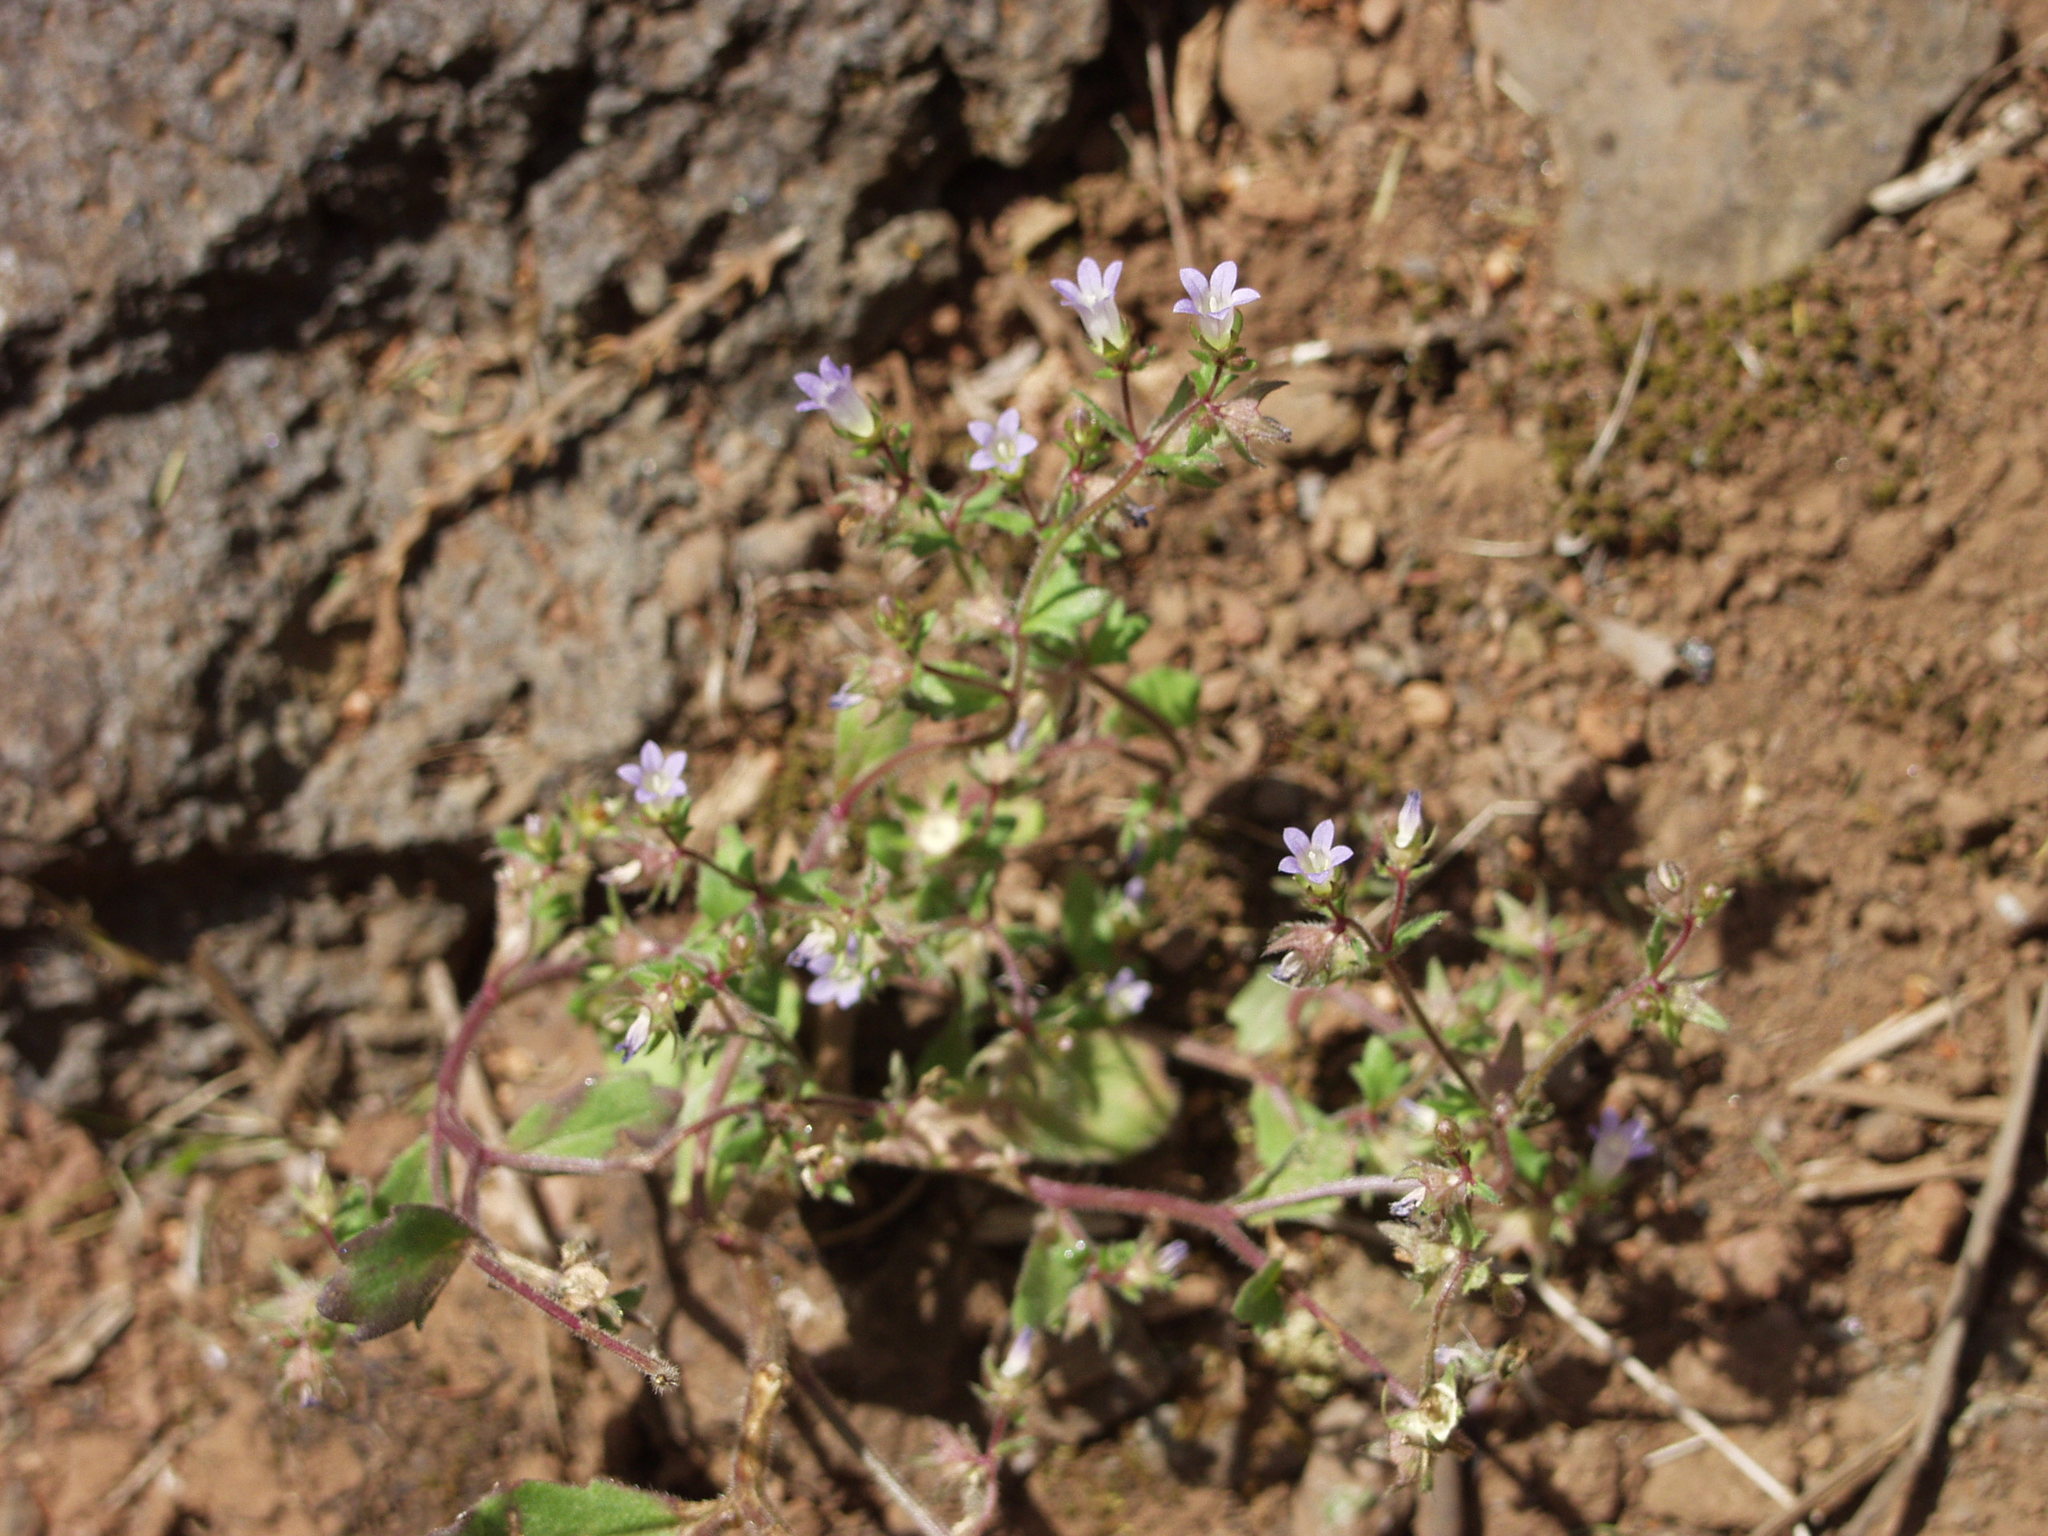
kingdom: Plantae
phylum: Tracheophyta
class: Magnoliopsida
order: Asterales
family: Campanulaceae
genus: Campanula
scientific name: Campanula erinus
